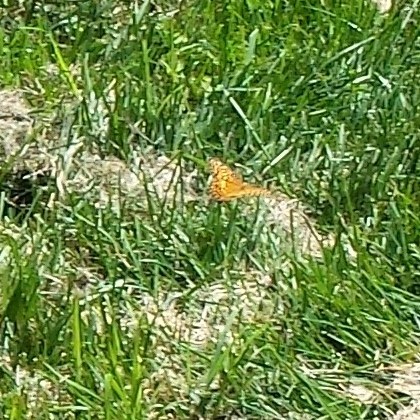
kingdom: Animalia
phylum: Arthropoda
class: Insecta
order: Lepidoptera
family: Nymphalidae
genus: Euptoieta
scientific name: Euptoieta claudia
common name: Variegated fritillary
